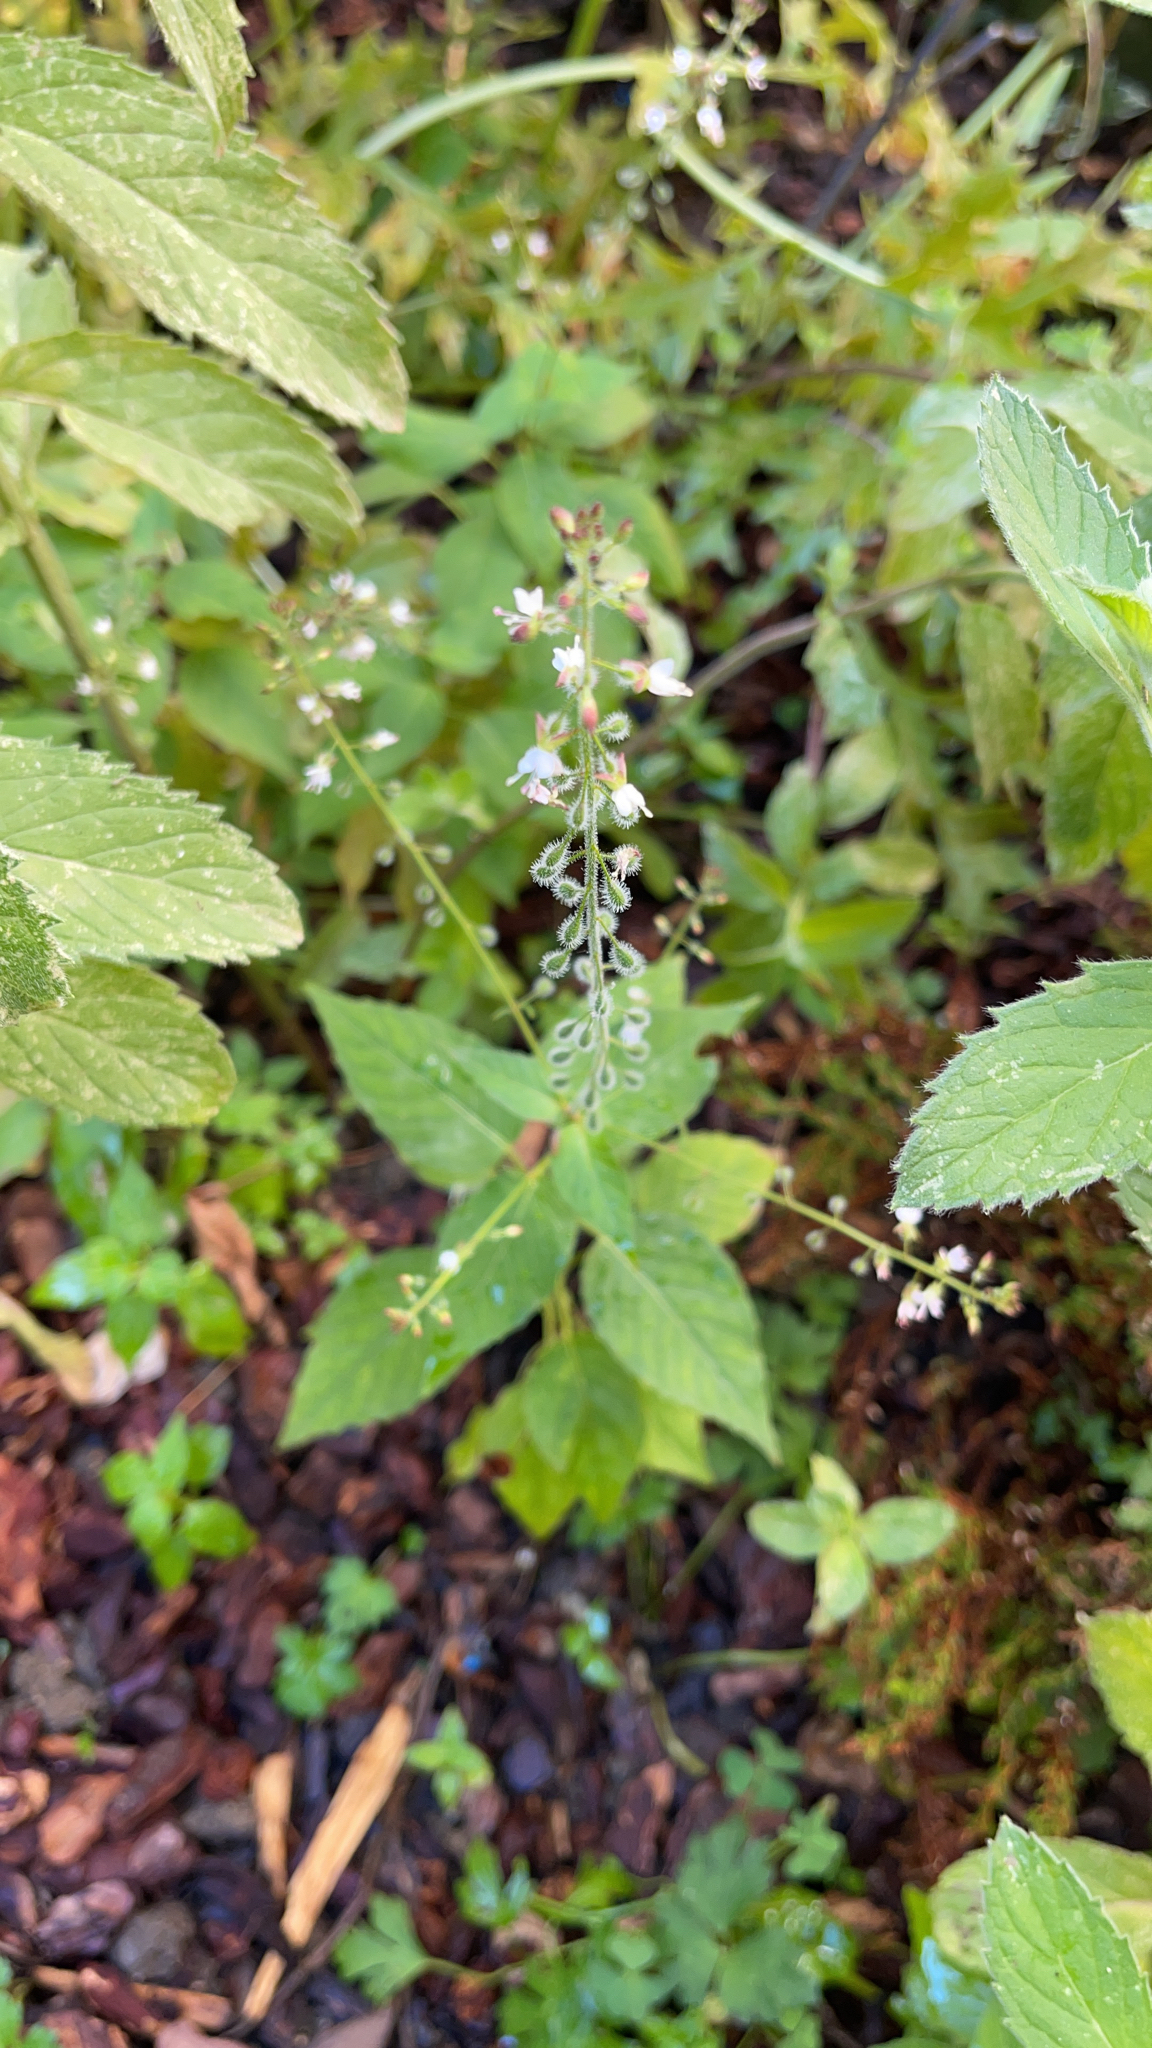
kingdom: Plantae
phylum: Tracheophyta
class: Magnoliopsida
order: Myrtales
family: Onagraceae
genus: Circaea
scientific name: Circaea lutetiana
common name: Enchanter's-nightshade
